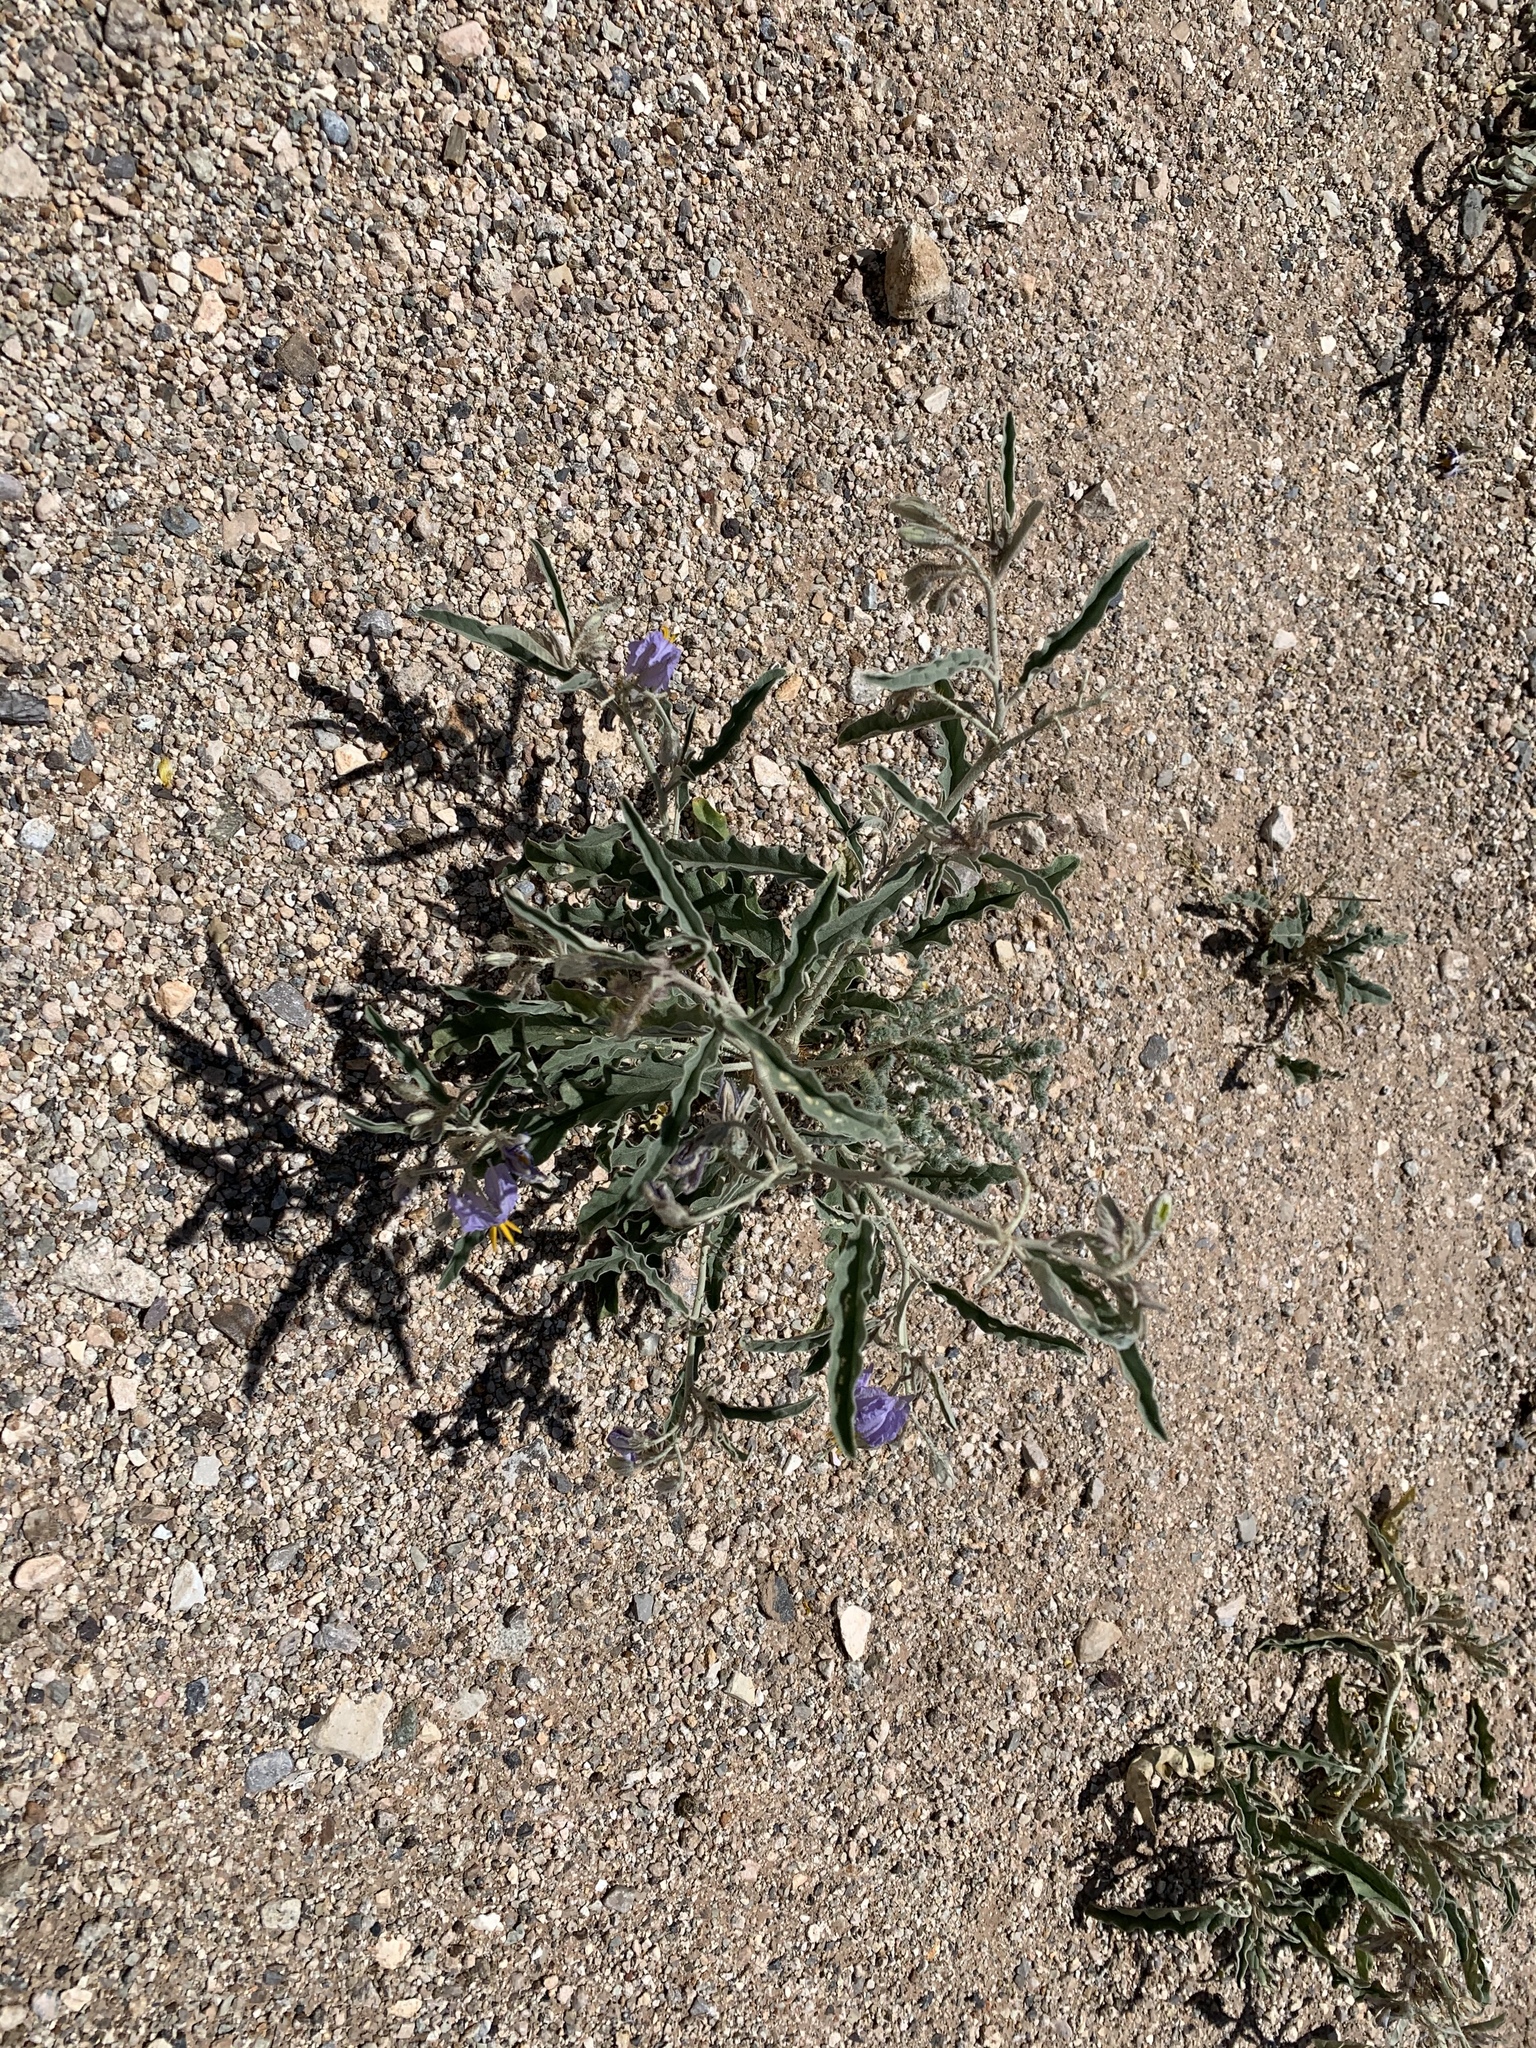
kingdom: Plantae
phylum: Tracheophyta
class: Magnoliopsida
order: Solanales
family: Solanaceae
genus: Solanum
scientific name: Solanum elaeagnifolium
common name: Silverleaf nightshade
